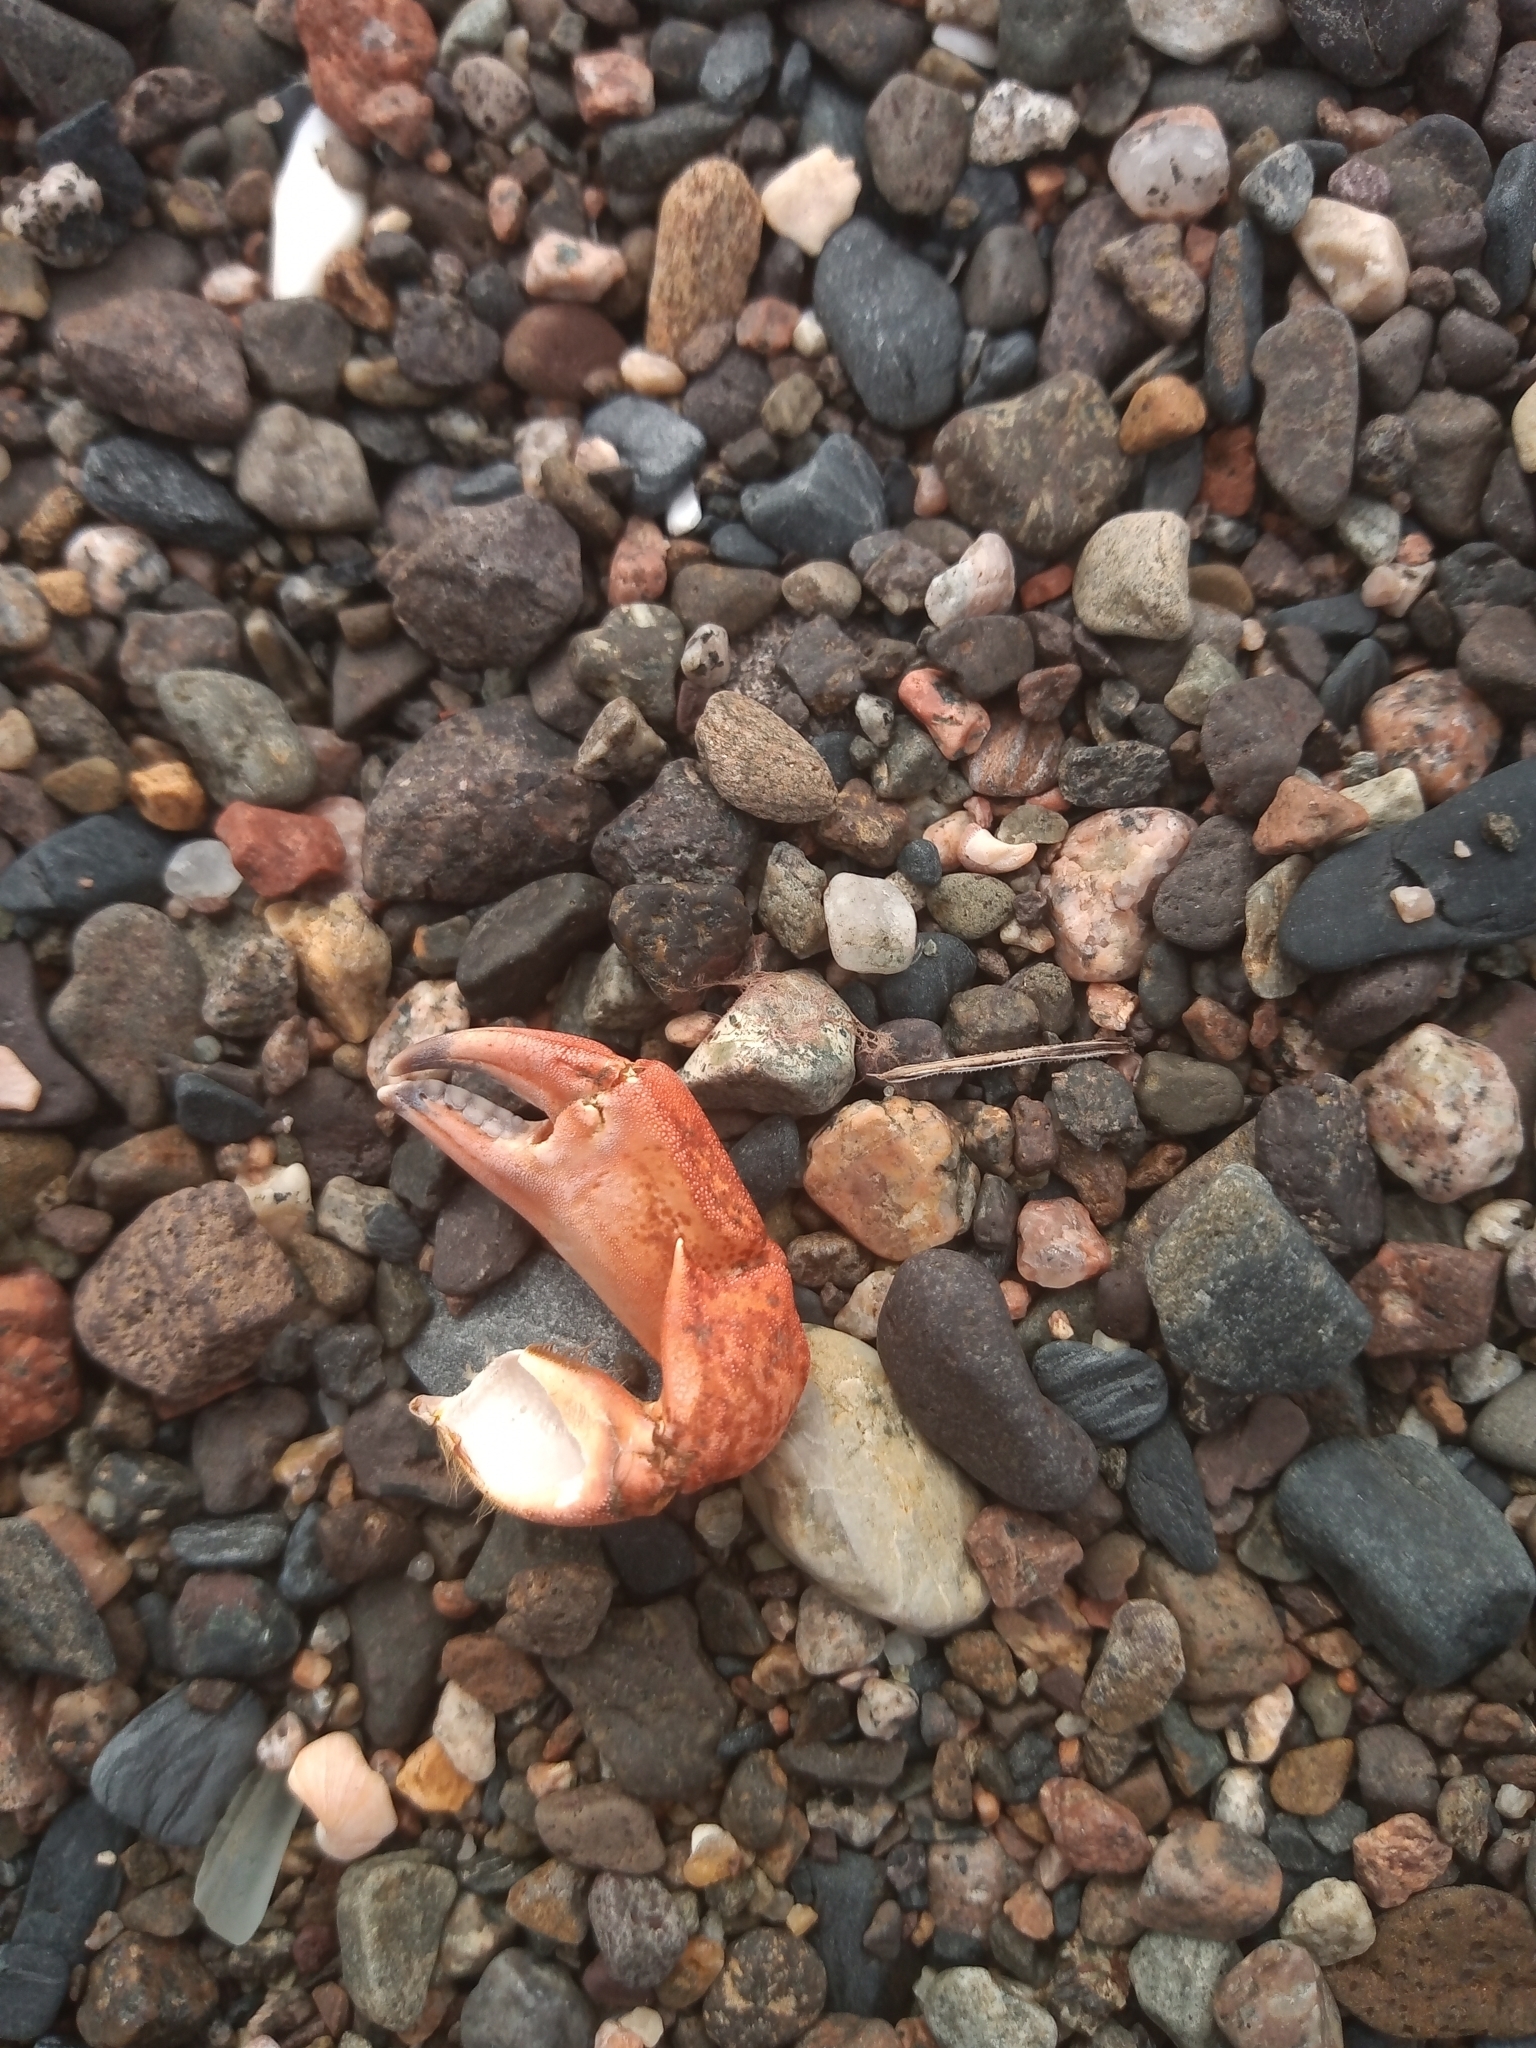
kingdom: Animalia
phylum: Arthropoda
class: Malacostraca
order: Decapoda
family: Carcinidae
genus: Carcinus
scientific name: Carcinus maenas
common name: European green crab
